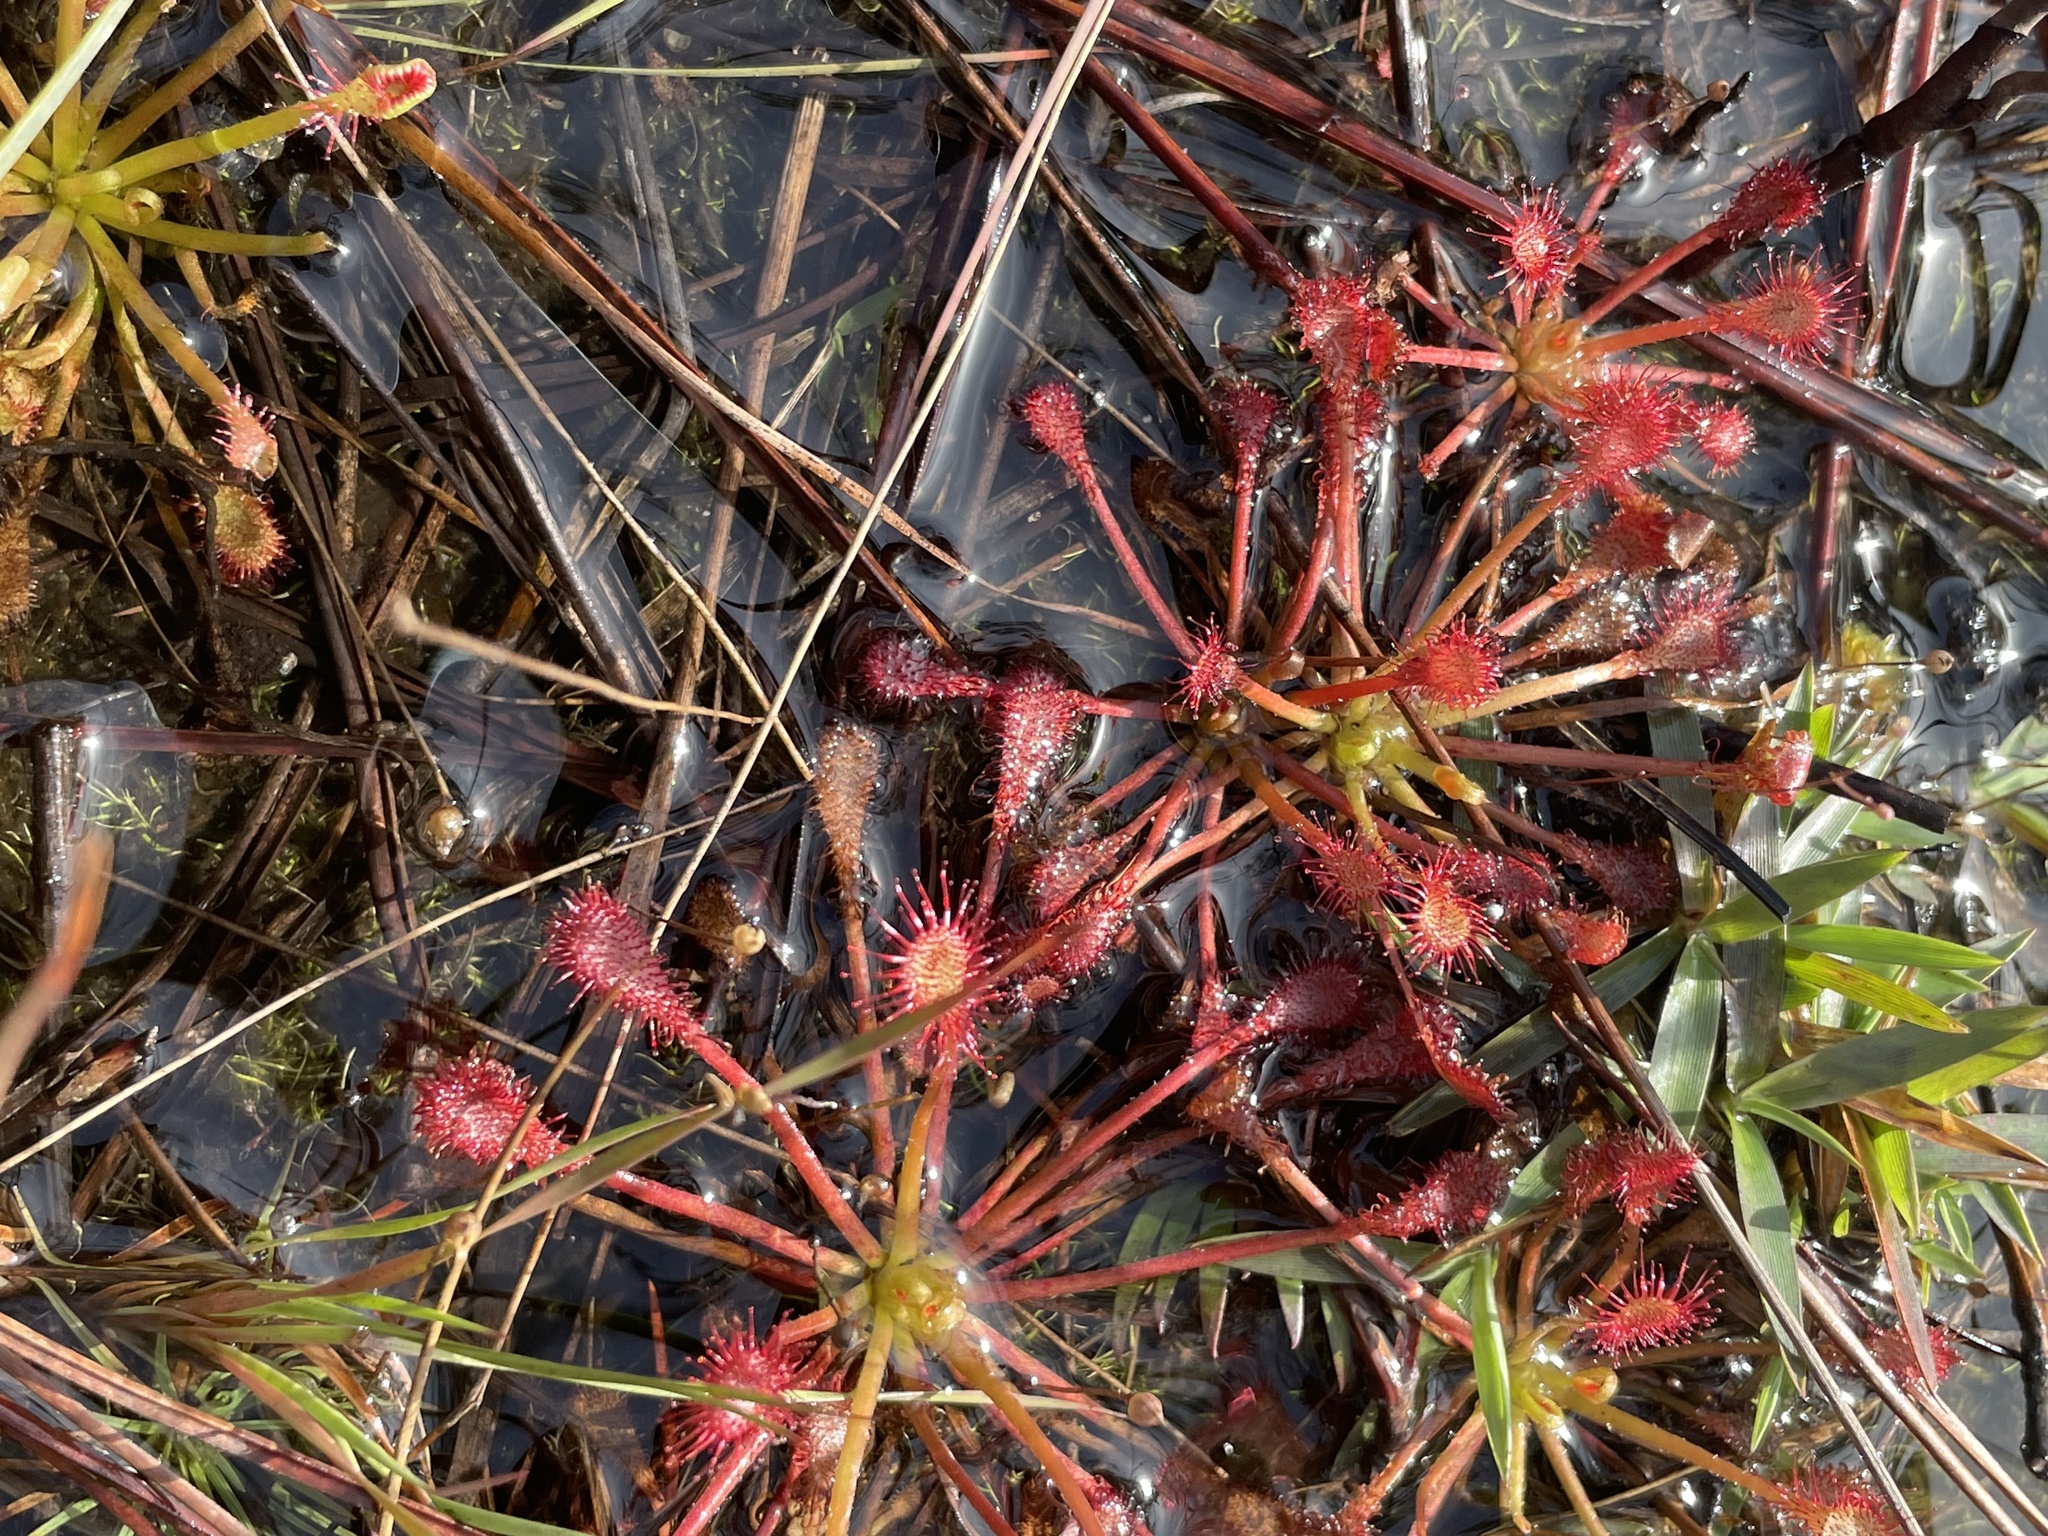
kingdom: Plantae
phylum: Tracheophyta
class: Magnoliopsida
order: Caryophyllales
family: Droseraceae
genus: Drosera
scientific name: Drosera capillaris
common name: Pink sundew
